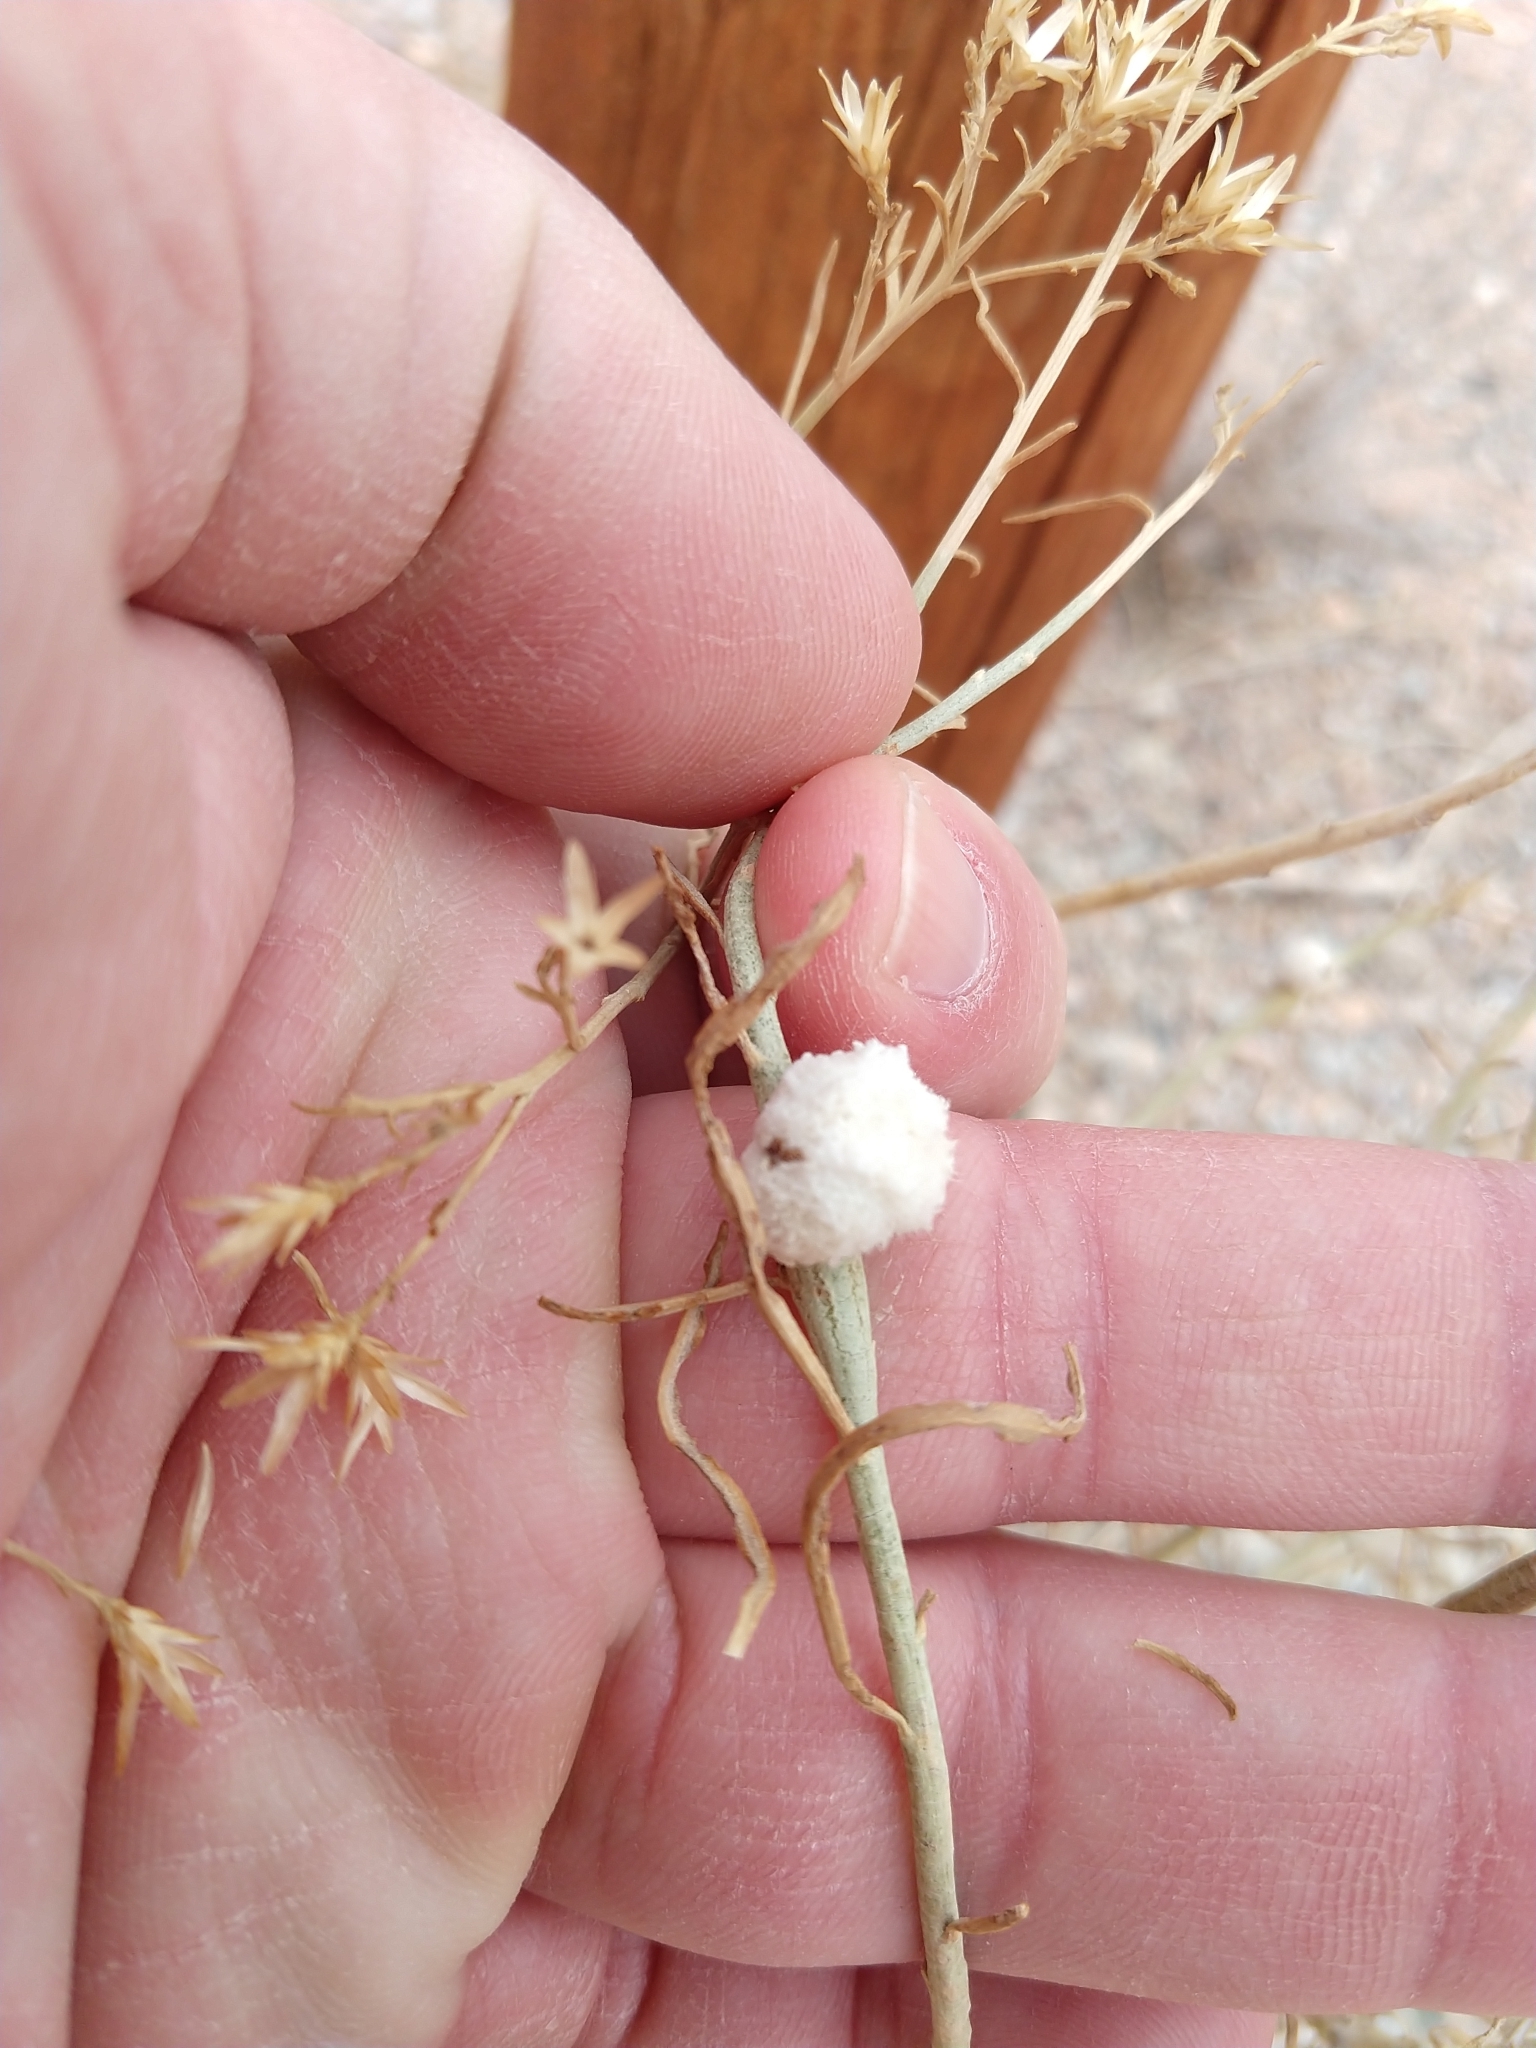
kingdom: Animalia
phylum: Arthropoda
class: Insecta
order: Diptera
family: Tephritidae
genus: Aciurina
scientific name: Aciurina bigeloviae
